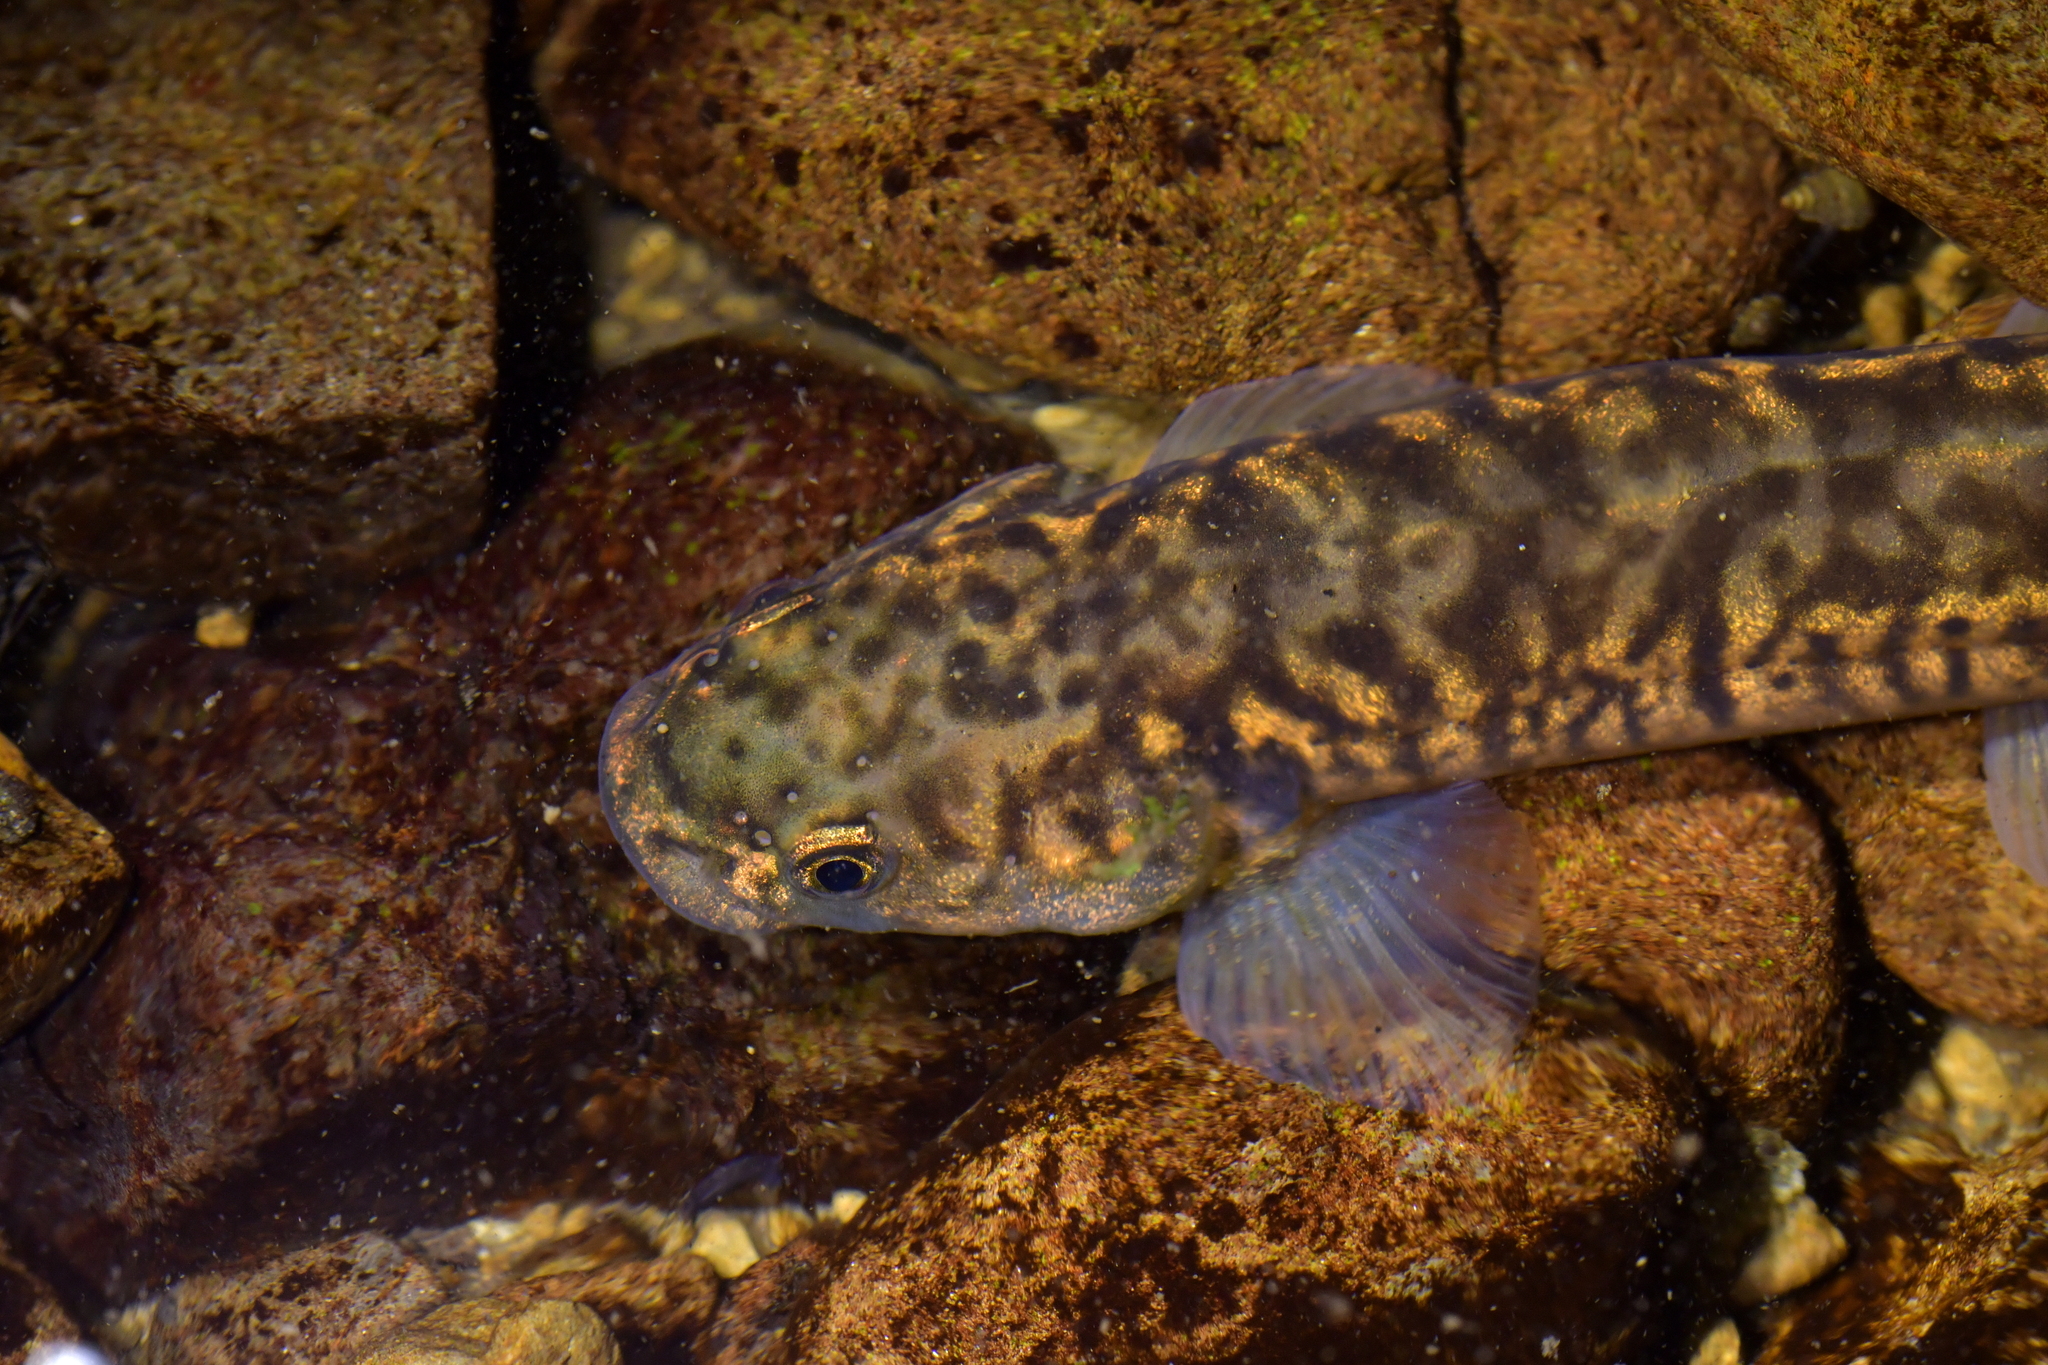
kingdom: Animalia
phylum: Chordata
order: Osmeriformes
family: Galaxiidae
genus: Galaxias
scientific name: Galaxias brevipinnis
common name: Koaro
